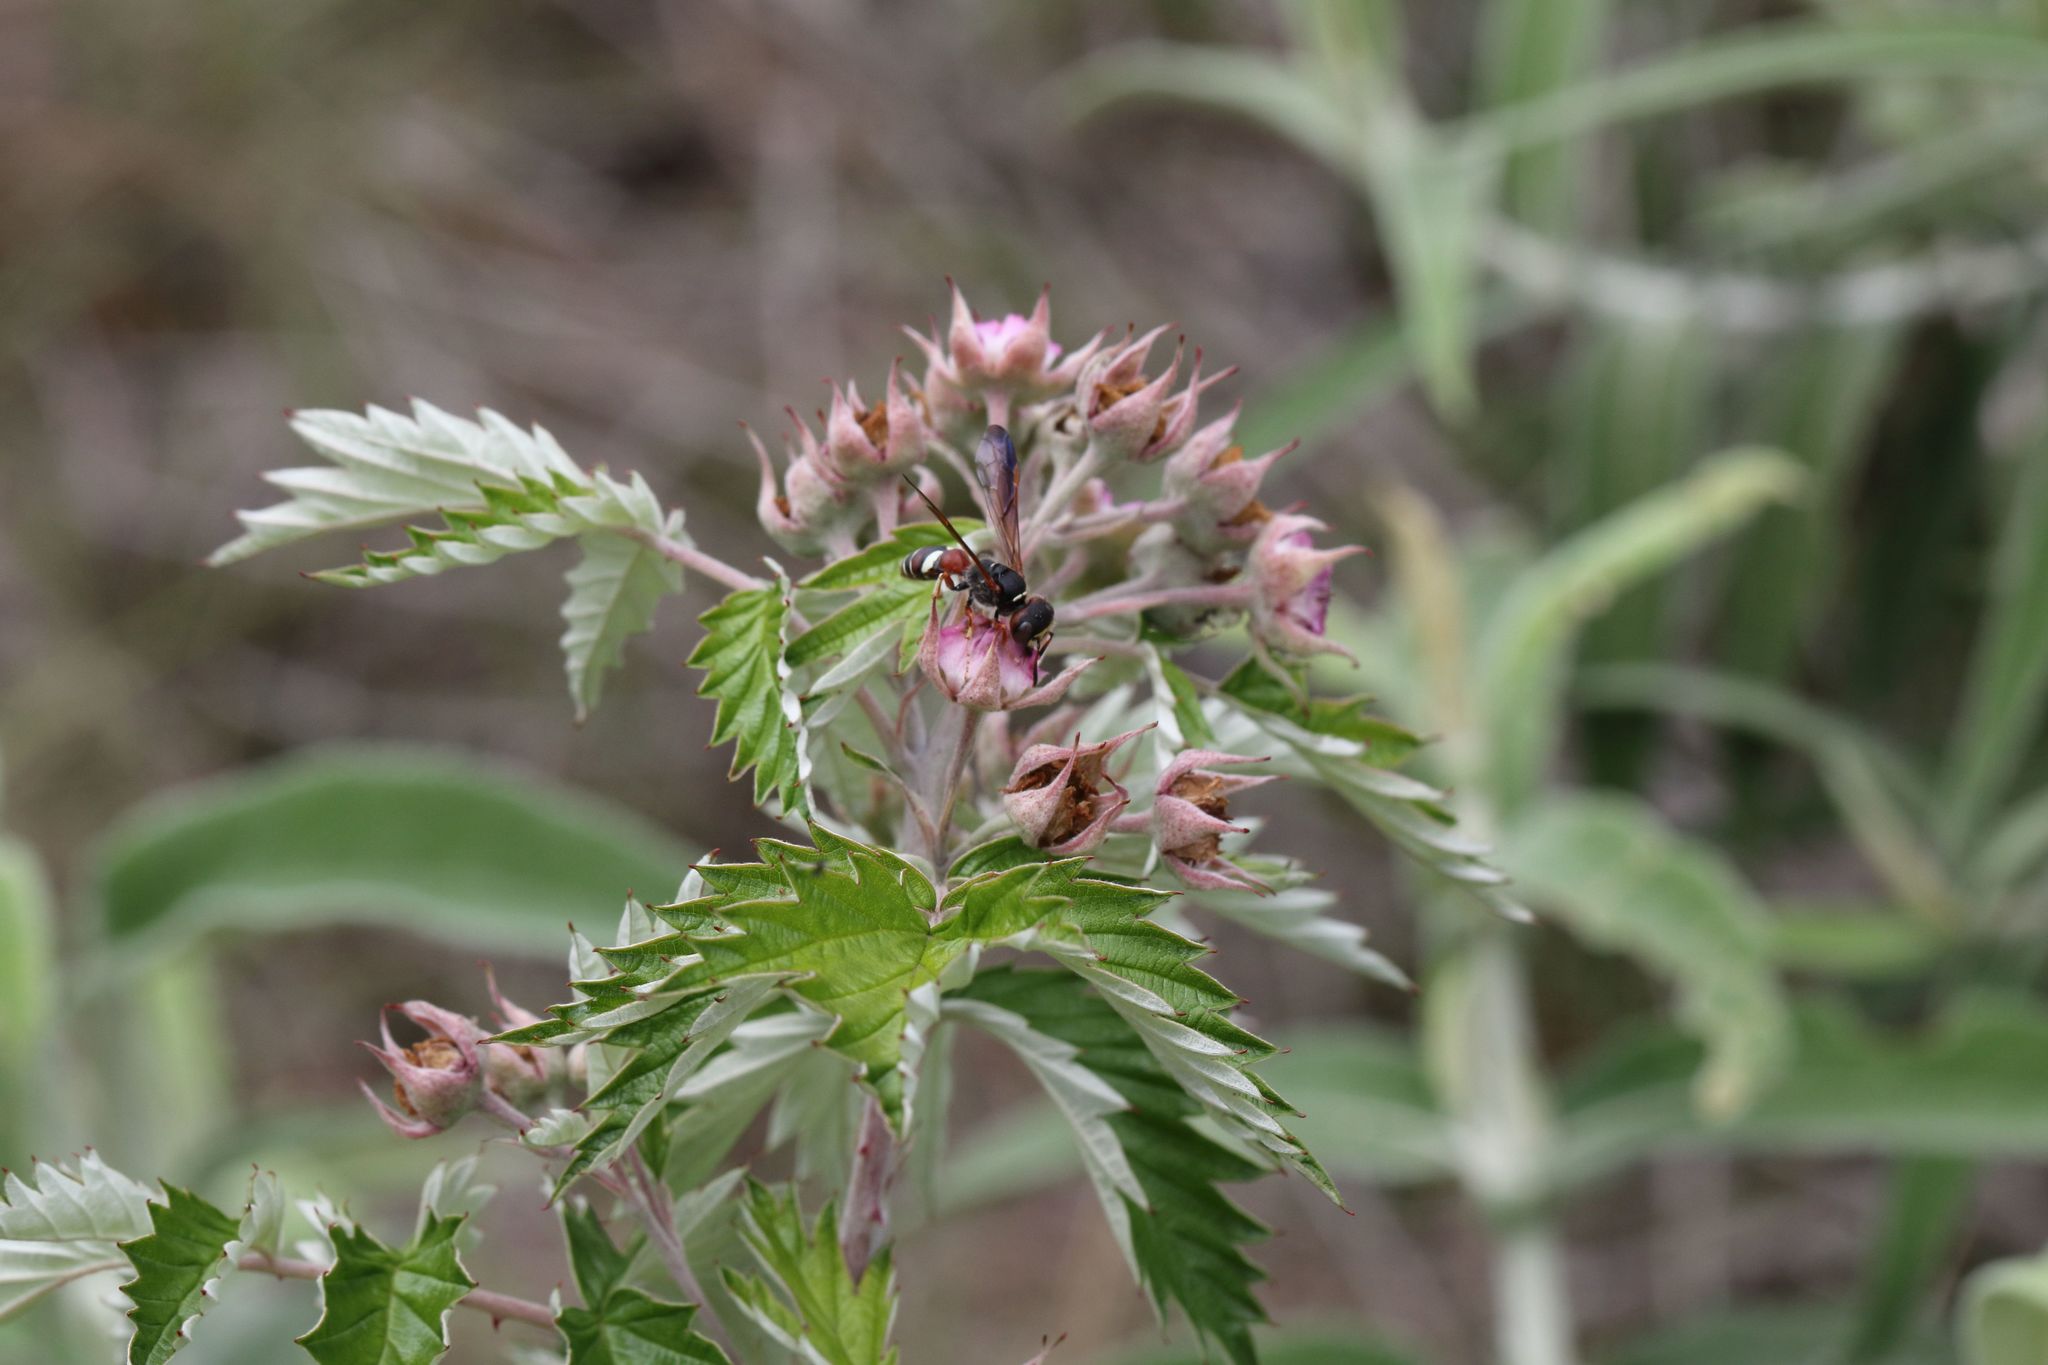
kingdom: Plantae
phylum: Tracheophyta
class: Magnoliopsida
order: Rosales
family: Rosaceae
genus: Rubus
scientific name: Rubus ludwigii
